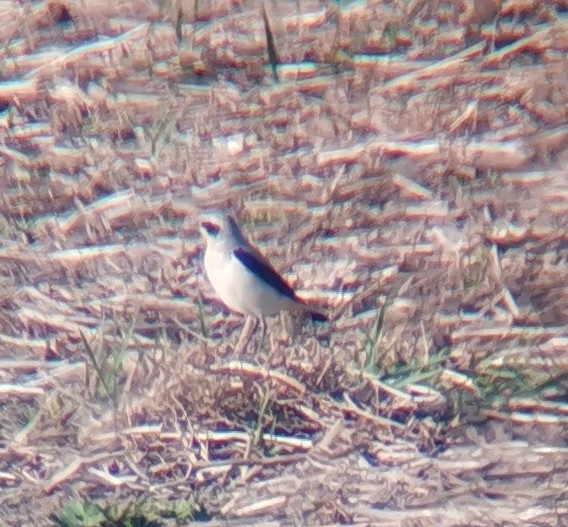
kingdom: Animalia
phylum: Chordata
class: Aves
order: Passeriformes
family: Muscicapidae
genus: Oenanthe
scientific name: Oenanthe oenanthe
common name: Northern wheatear
